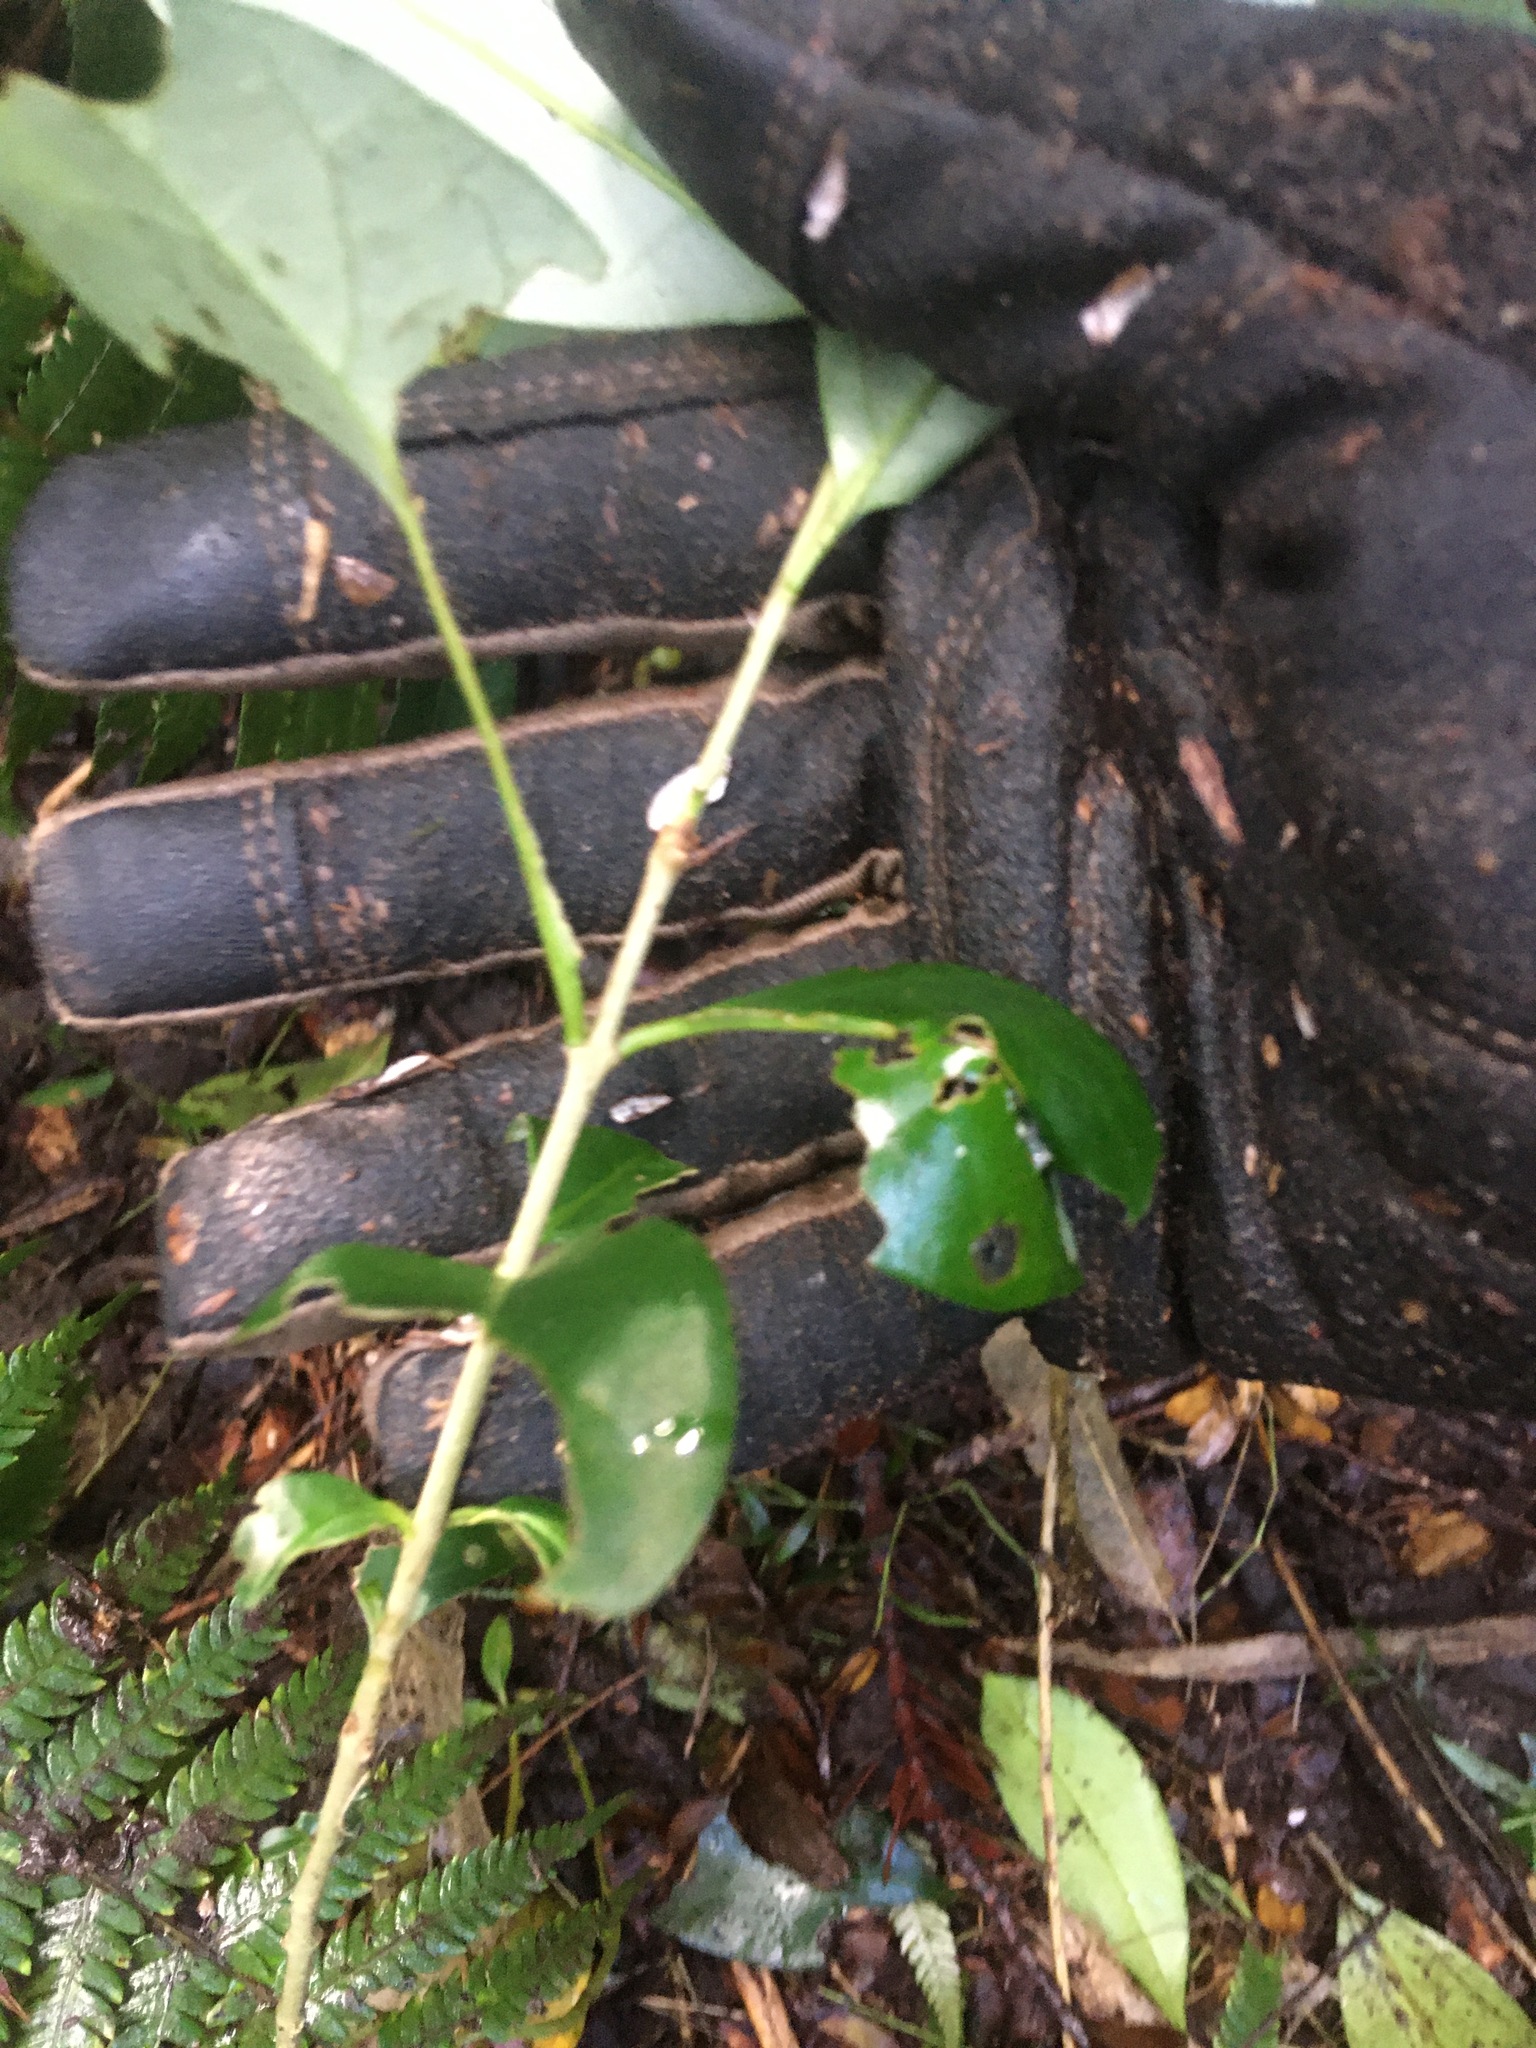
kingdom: Plantae
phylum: Tracheophyta
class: Magnoliopsida
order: Lamiales
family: Oleaceae
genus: Ligustrum
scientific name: Ligustrum lucidum
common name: Glossy privet
